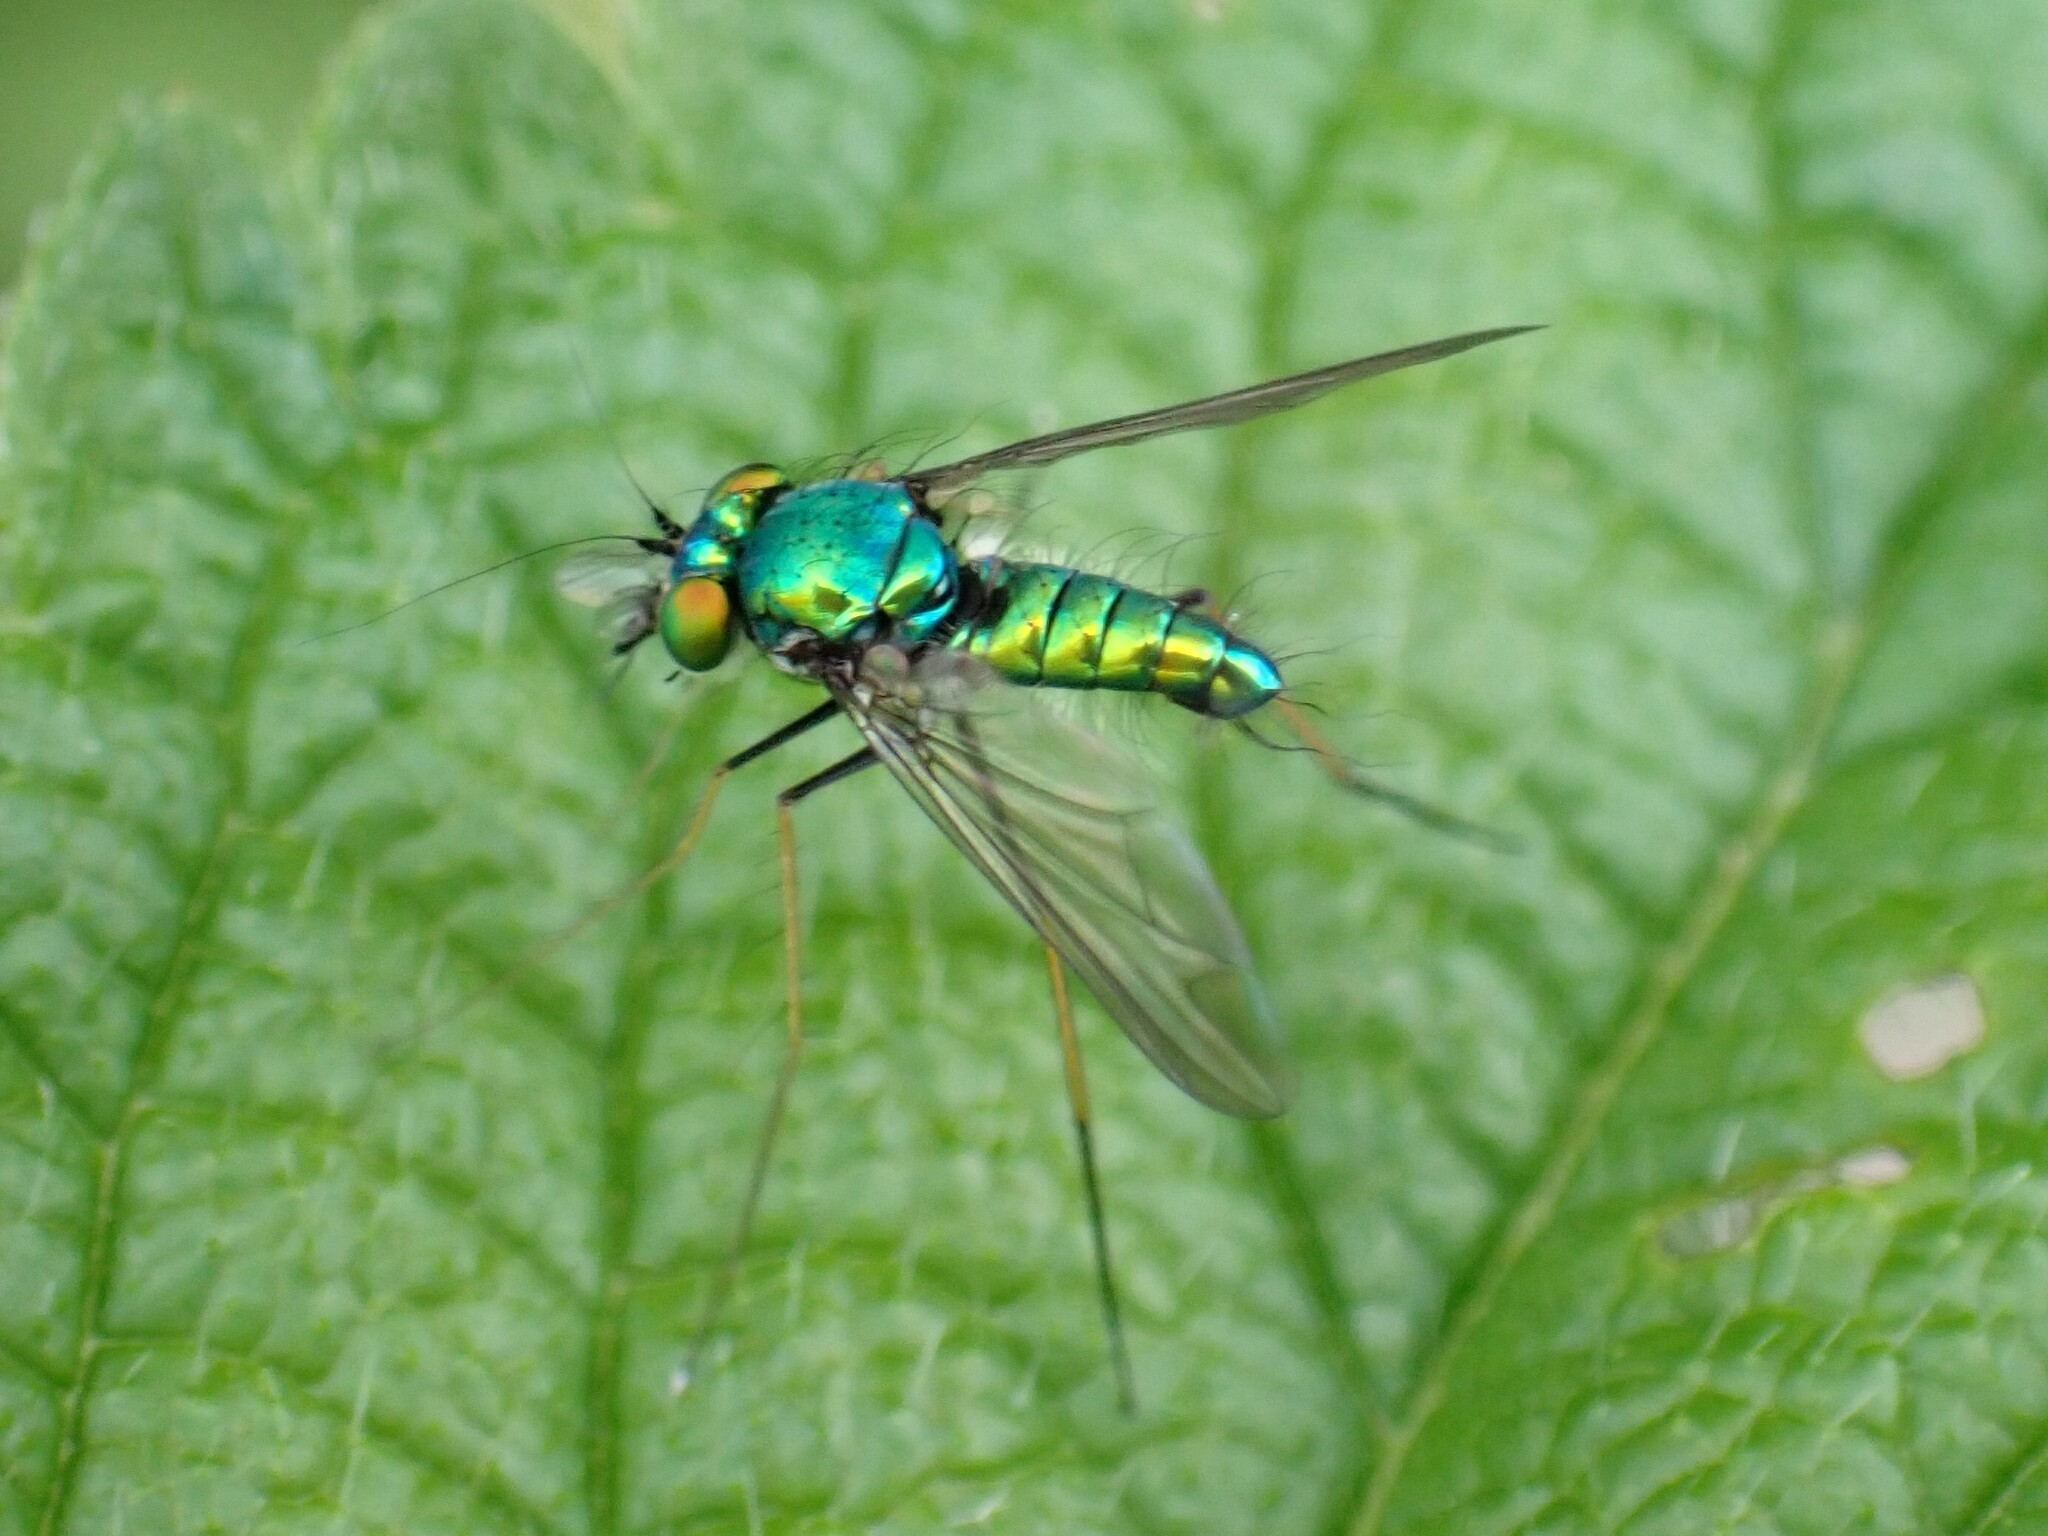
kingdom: Animalia
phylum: Arthropoda
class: Insecta
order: Diptera
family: Dolichopodidae
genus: Condylostylus
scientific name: Condylostylus comatus
